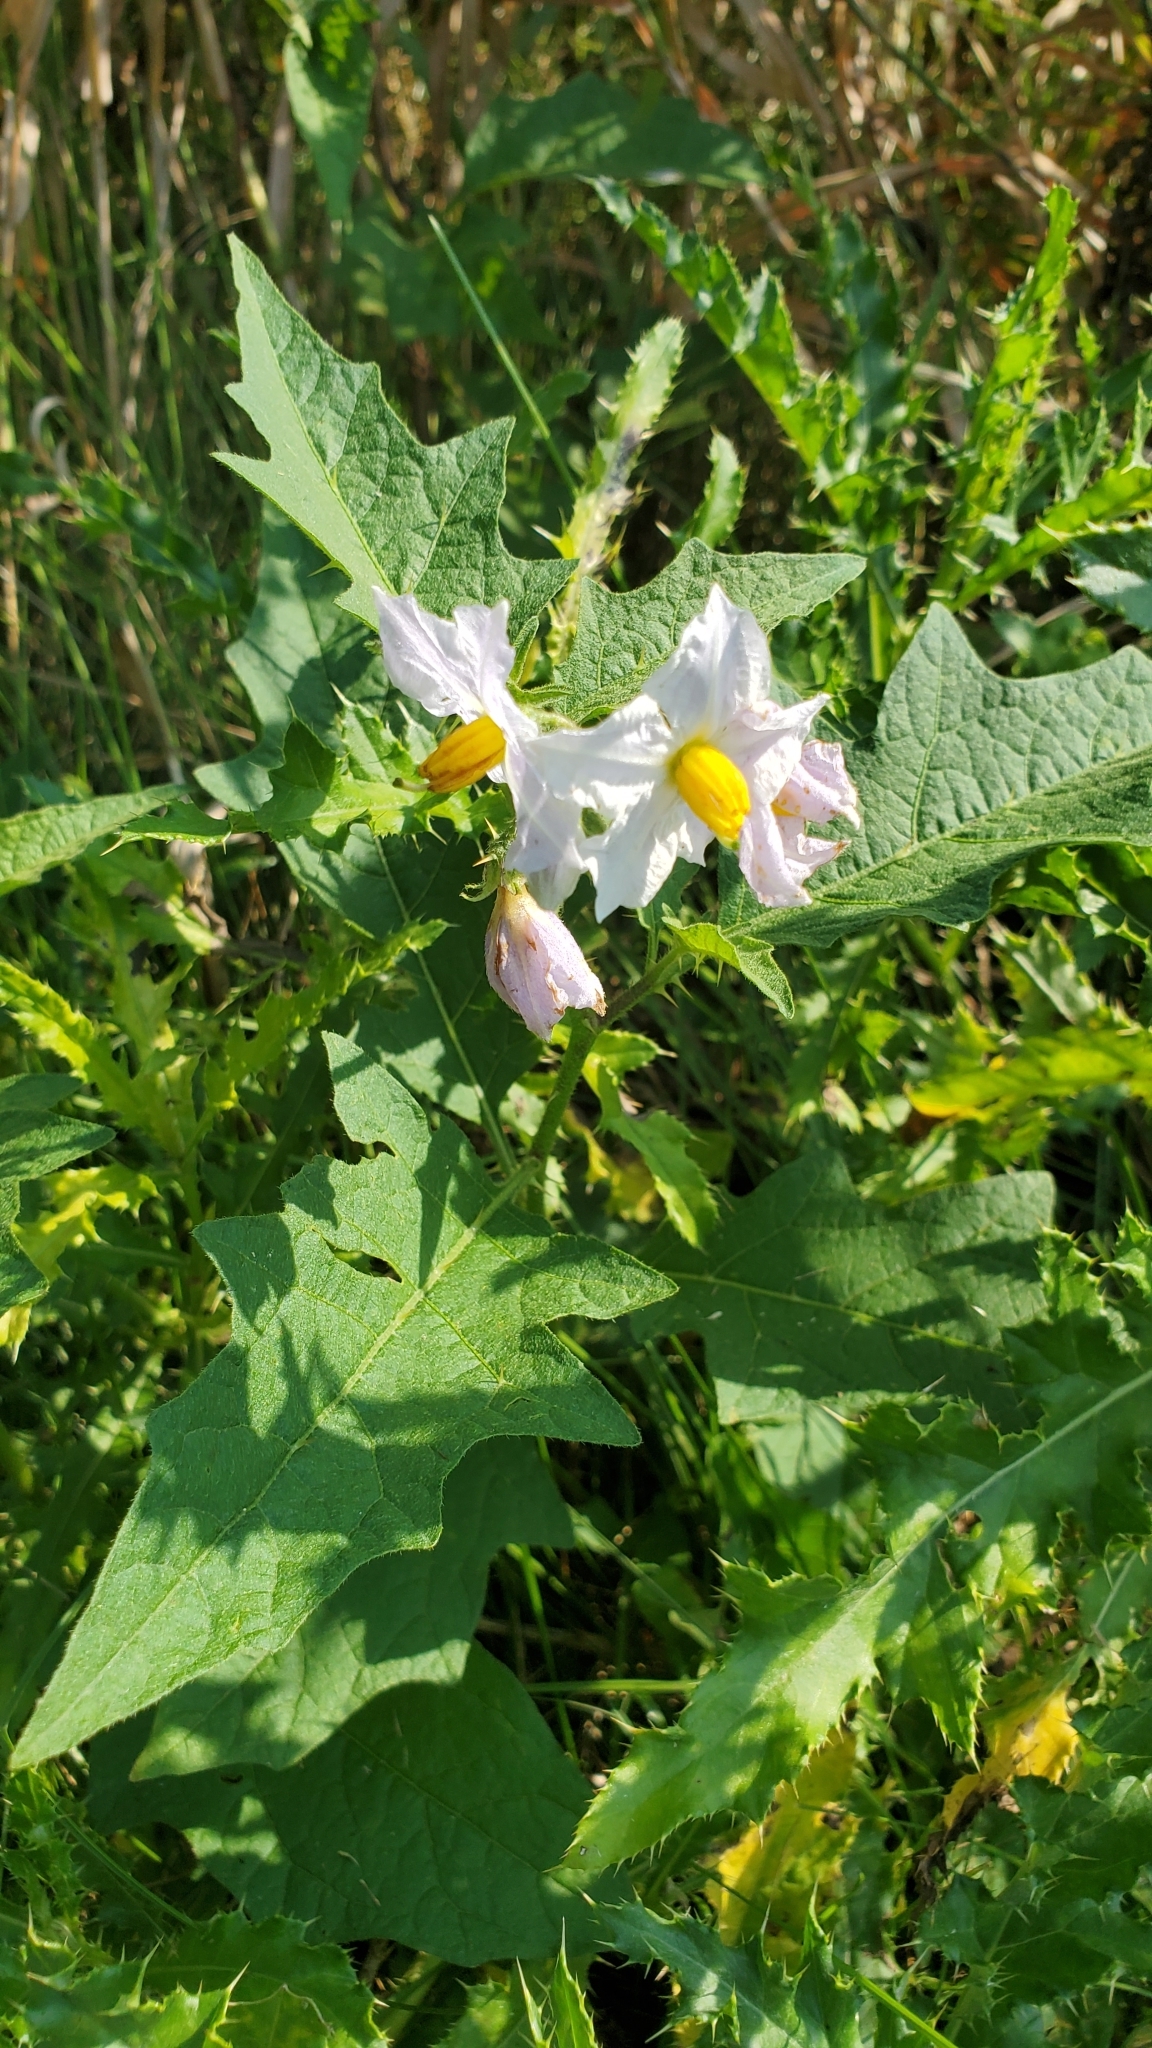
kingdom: Plantae
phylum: Tracheophyta
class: Magnoliopsida
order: Solanales
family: Solanaceae
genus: Solanum
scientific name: Solanum carolinense
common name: Horse-nettle
